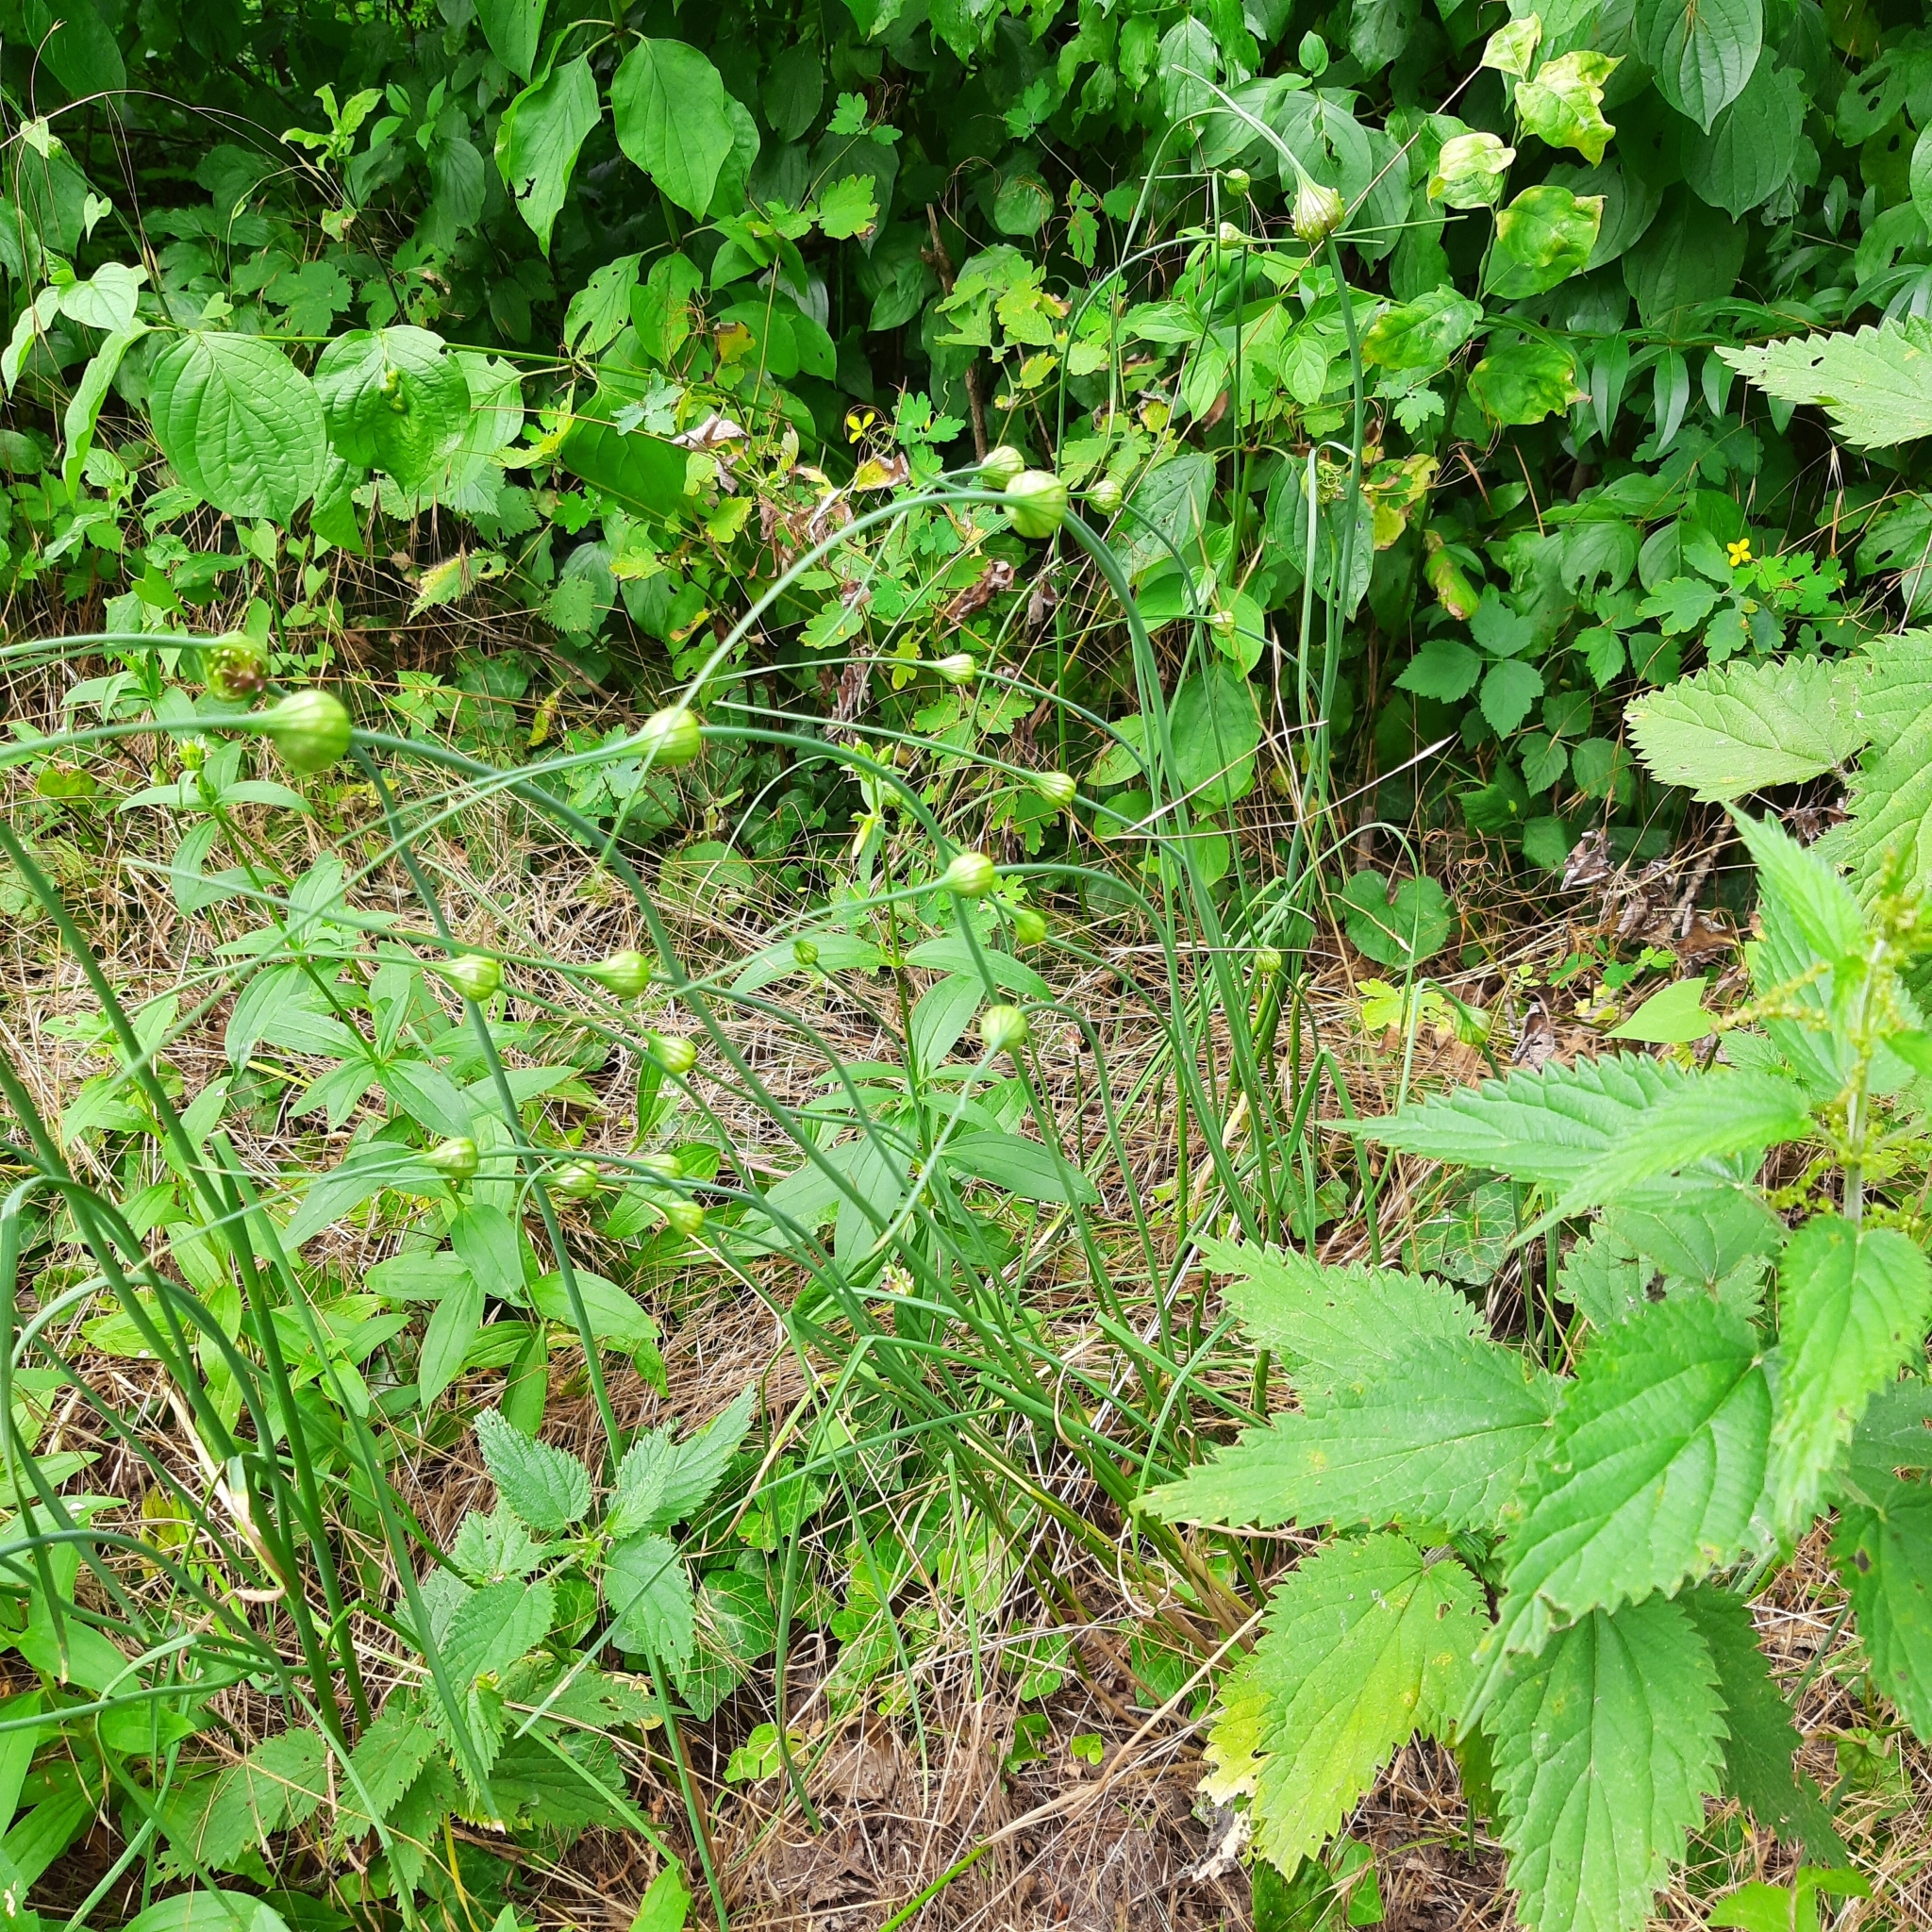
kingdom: Plantae
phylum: Tracheophyta
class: Liliopsida
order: Asparagales
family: Amaryllidaceae
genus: Allium
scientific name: Allium oleraceum
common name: Field garlic
